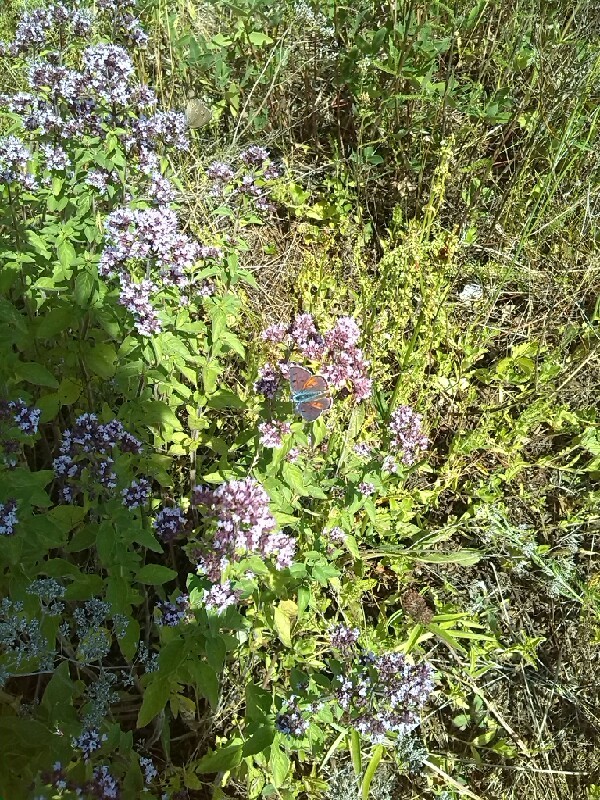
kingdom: Animalia
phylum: Arthropoda
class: Insecta
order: Lepidoptera
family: Lycaenidae
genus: Lycaena
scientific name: Lycaena alciphron
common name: Purple-shot copper
